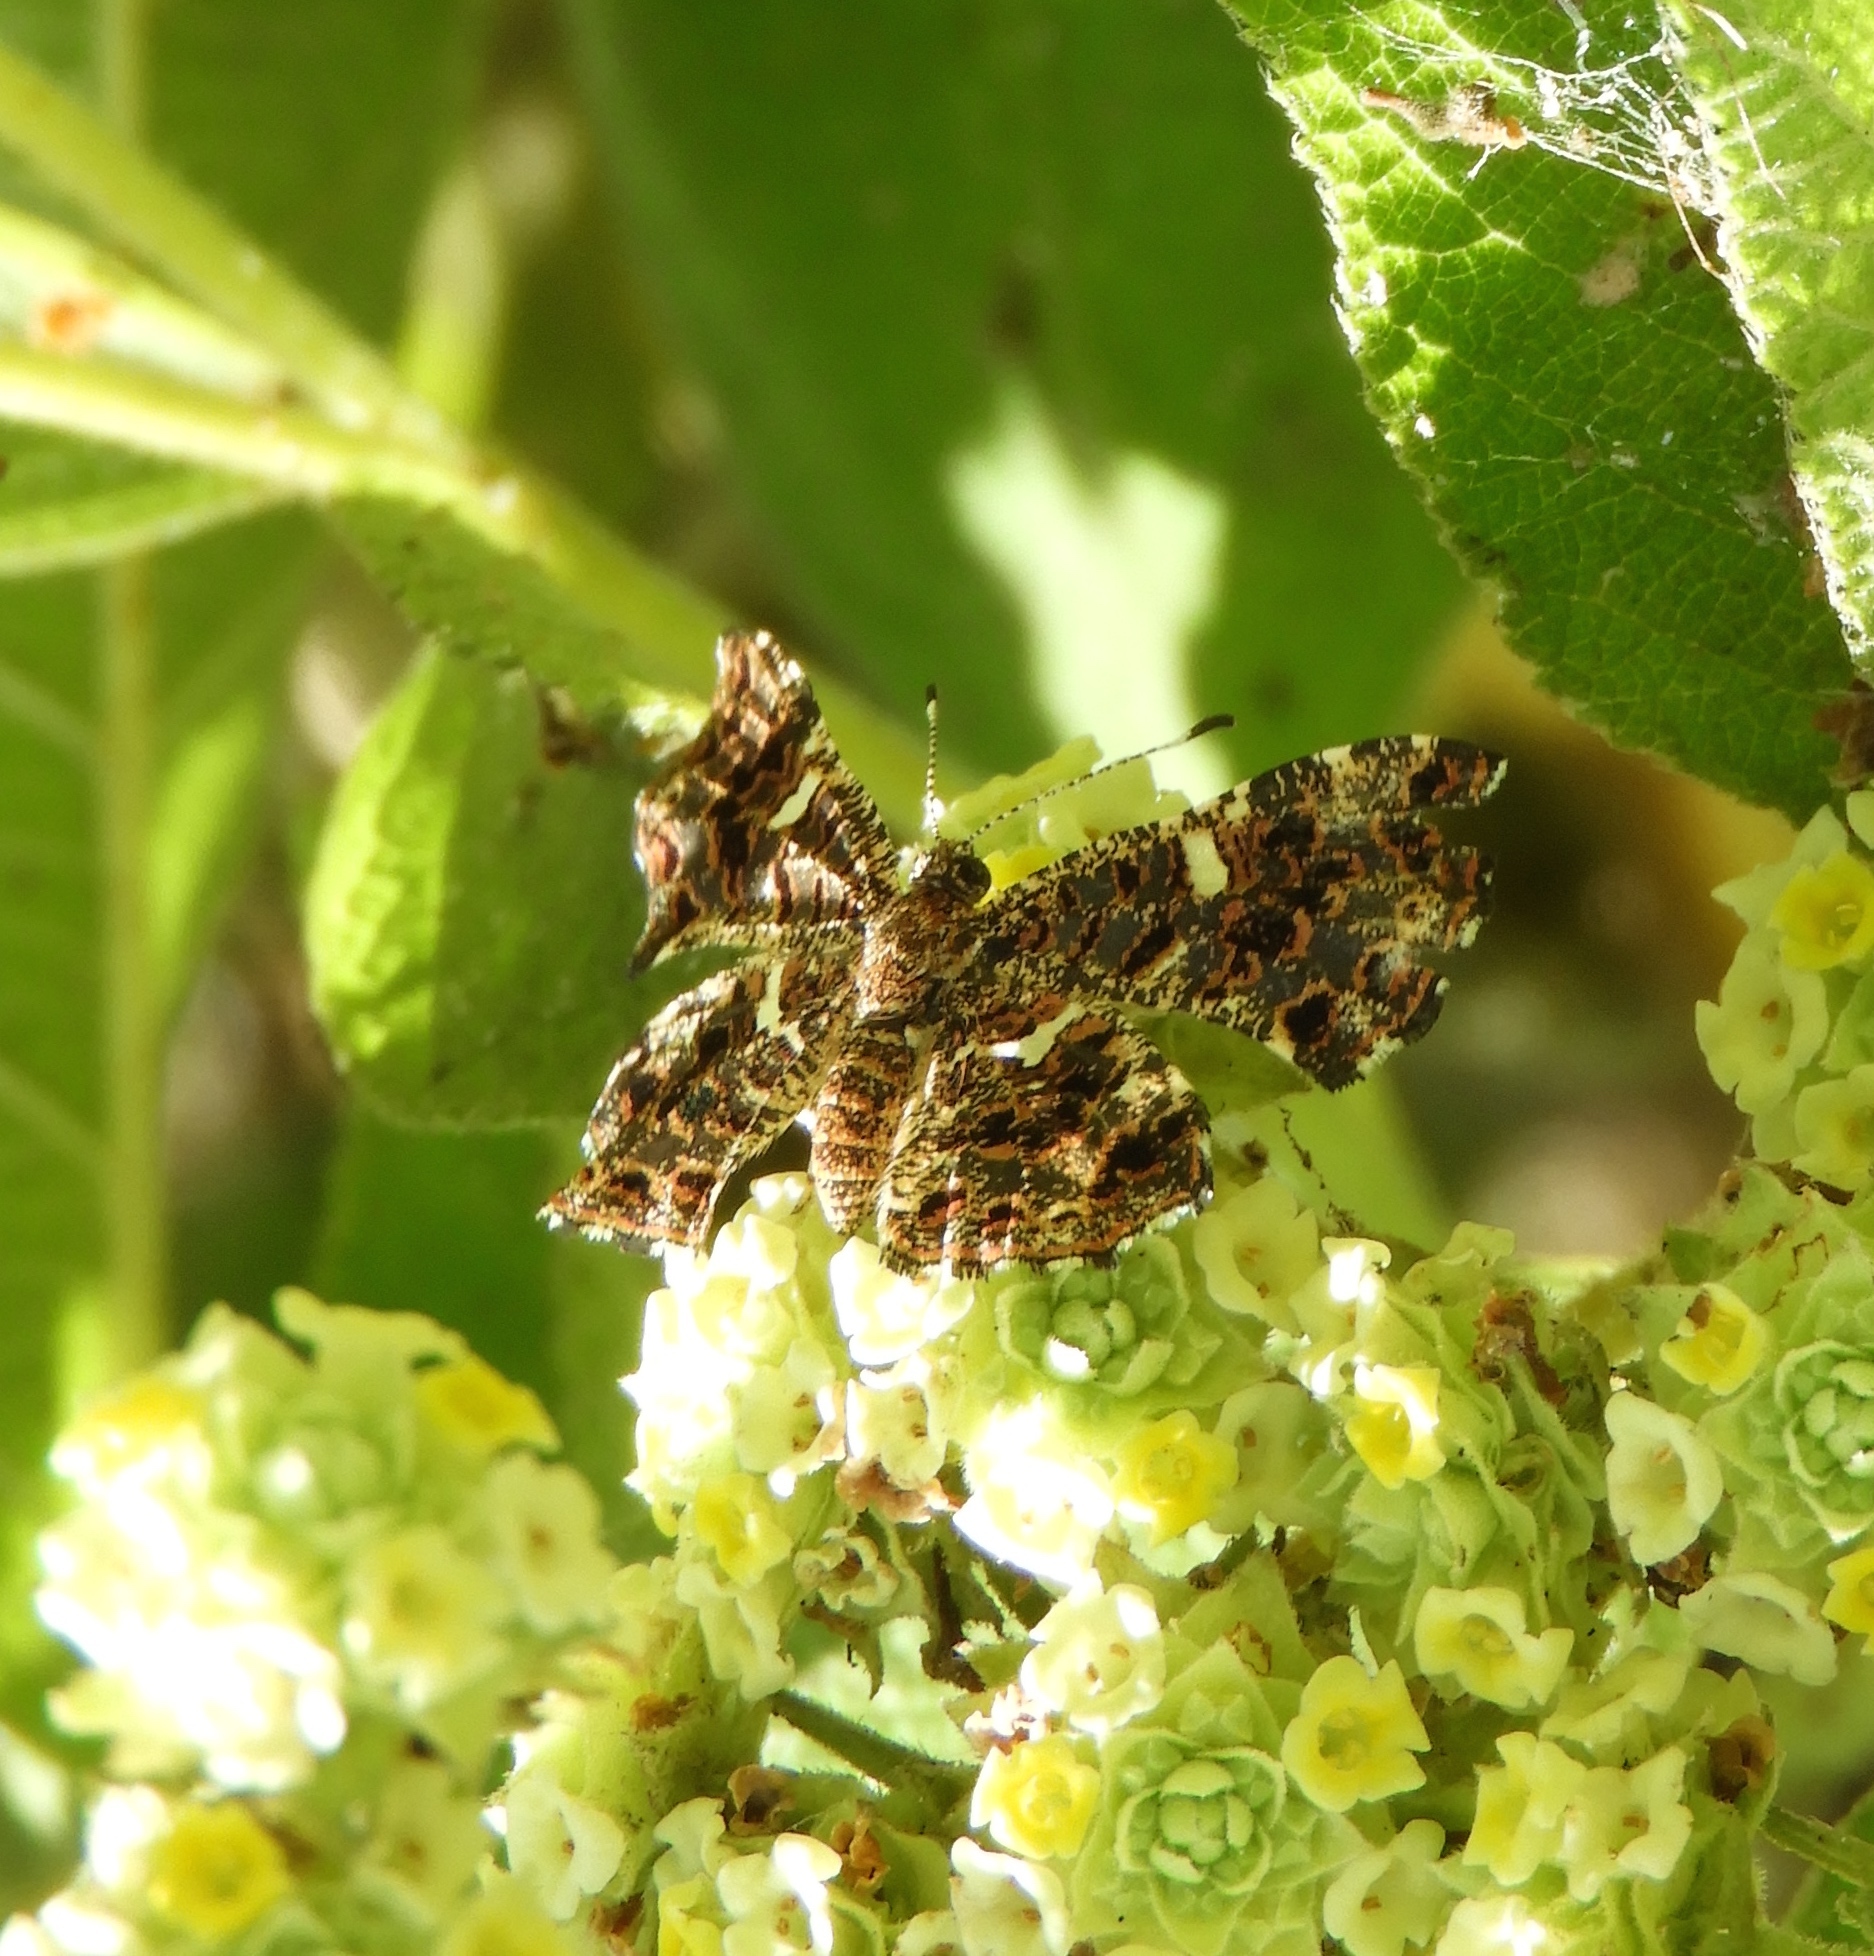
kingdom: Animalia
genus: Calydna
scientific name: Calydna sturnula
